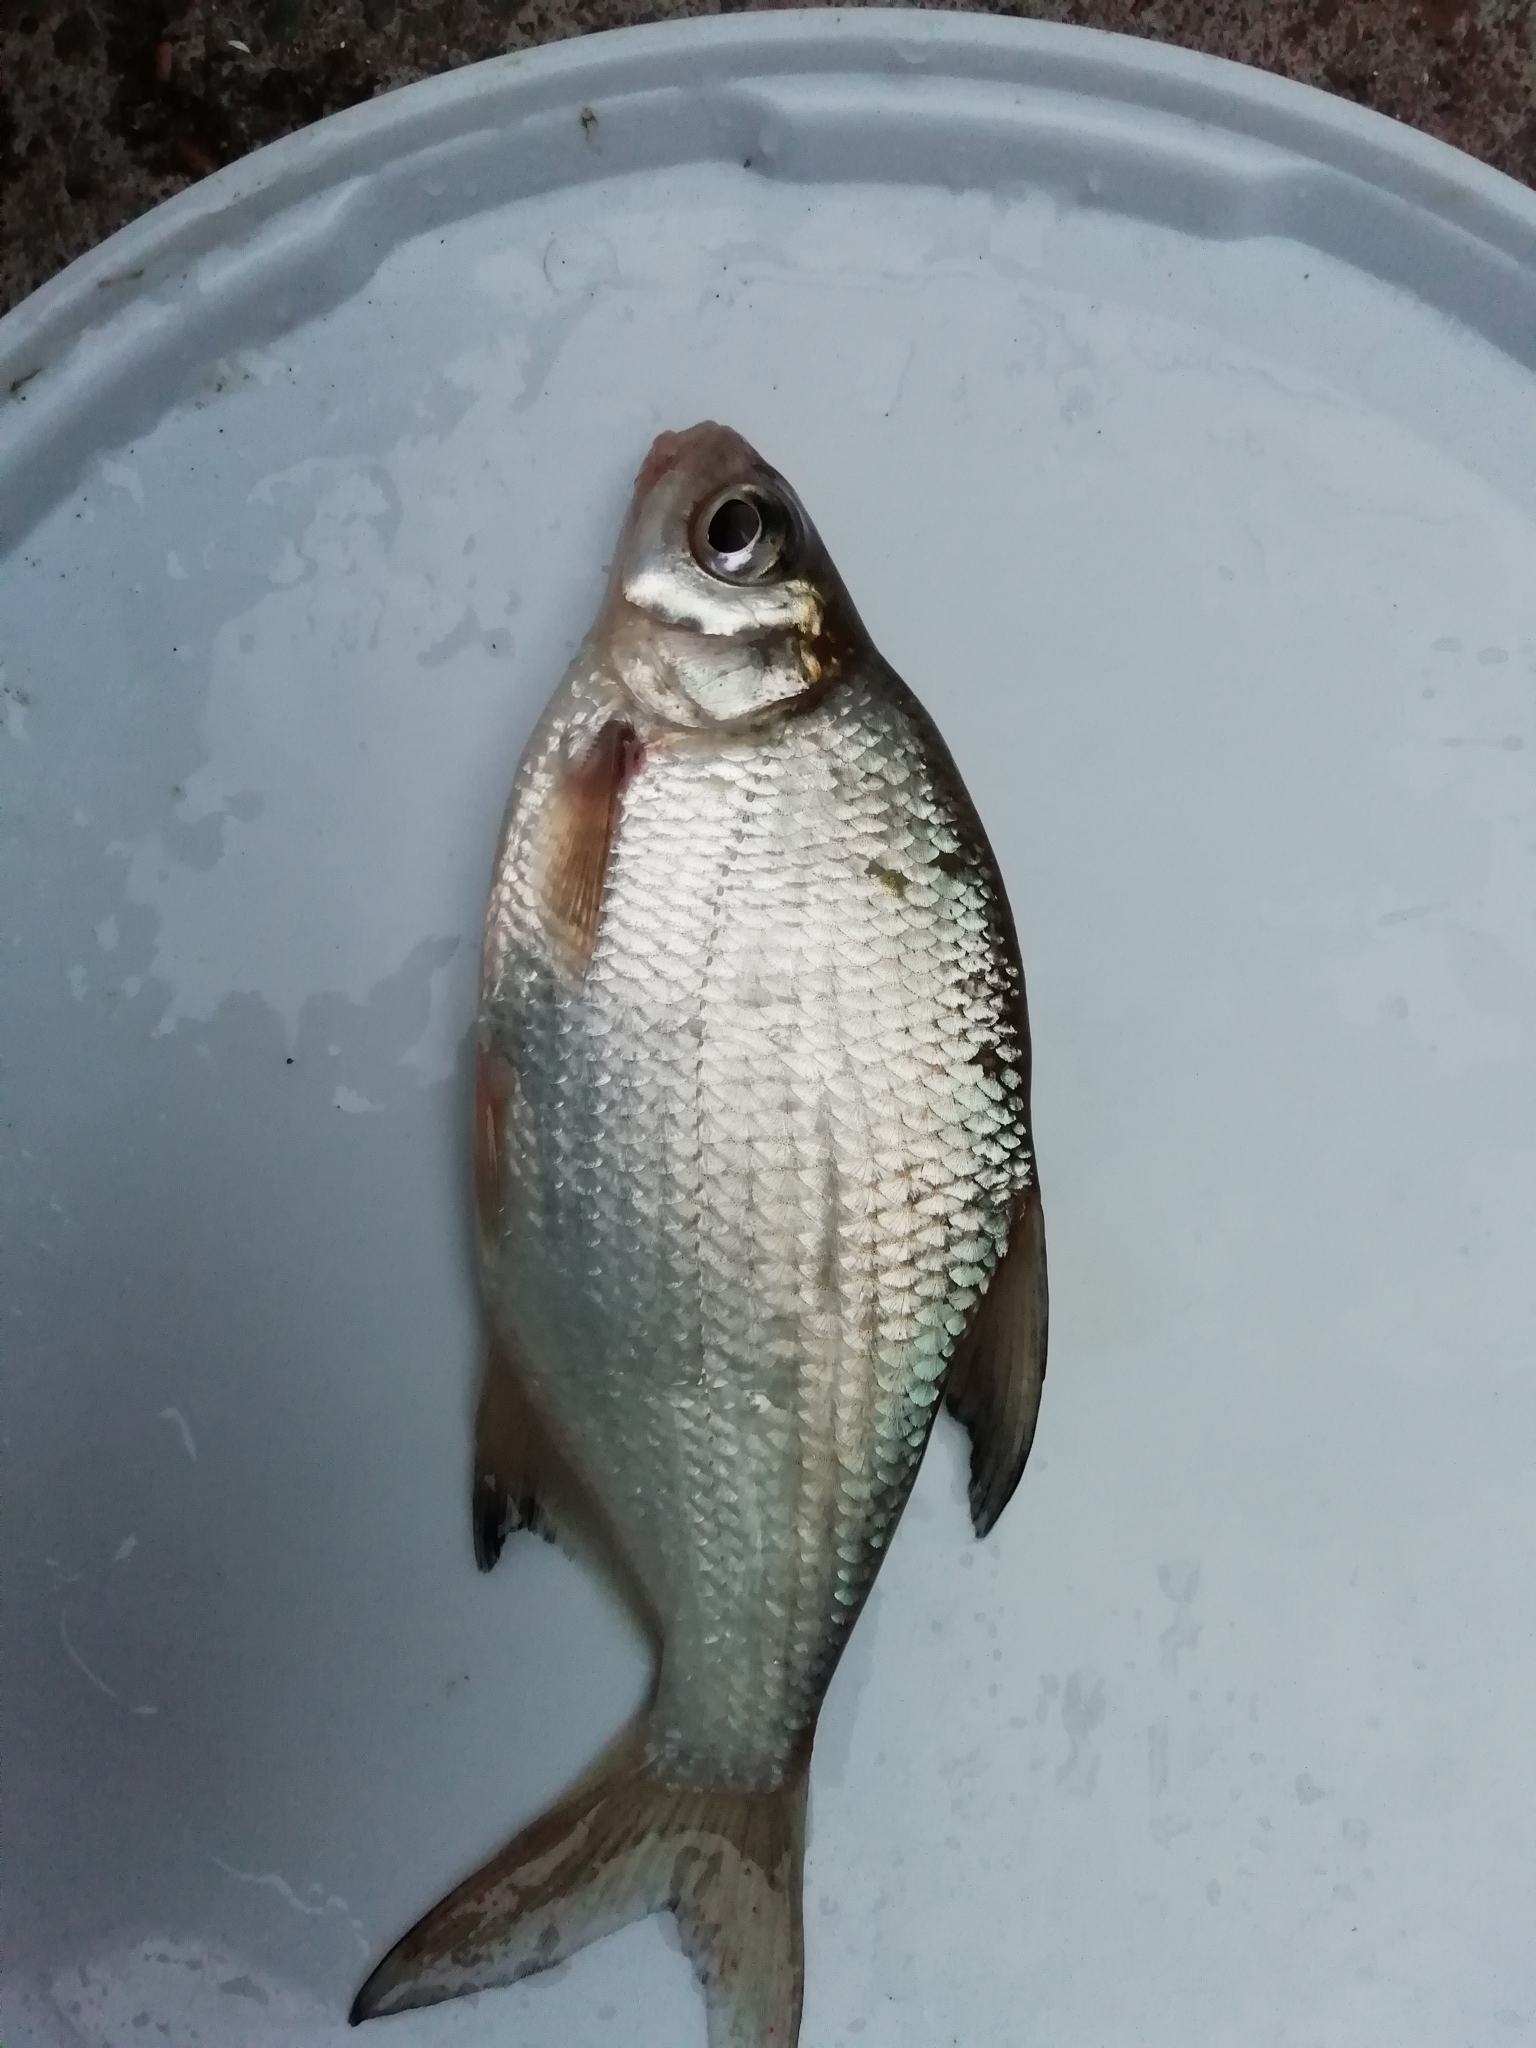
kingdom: Animalia
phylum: Chordata
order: Cypriniformes
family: Cyprinidae
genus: Blicca
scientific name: Blicca bjoerkna
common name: White bream
